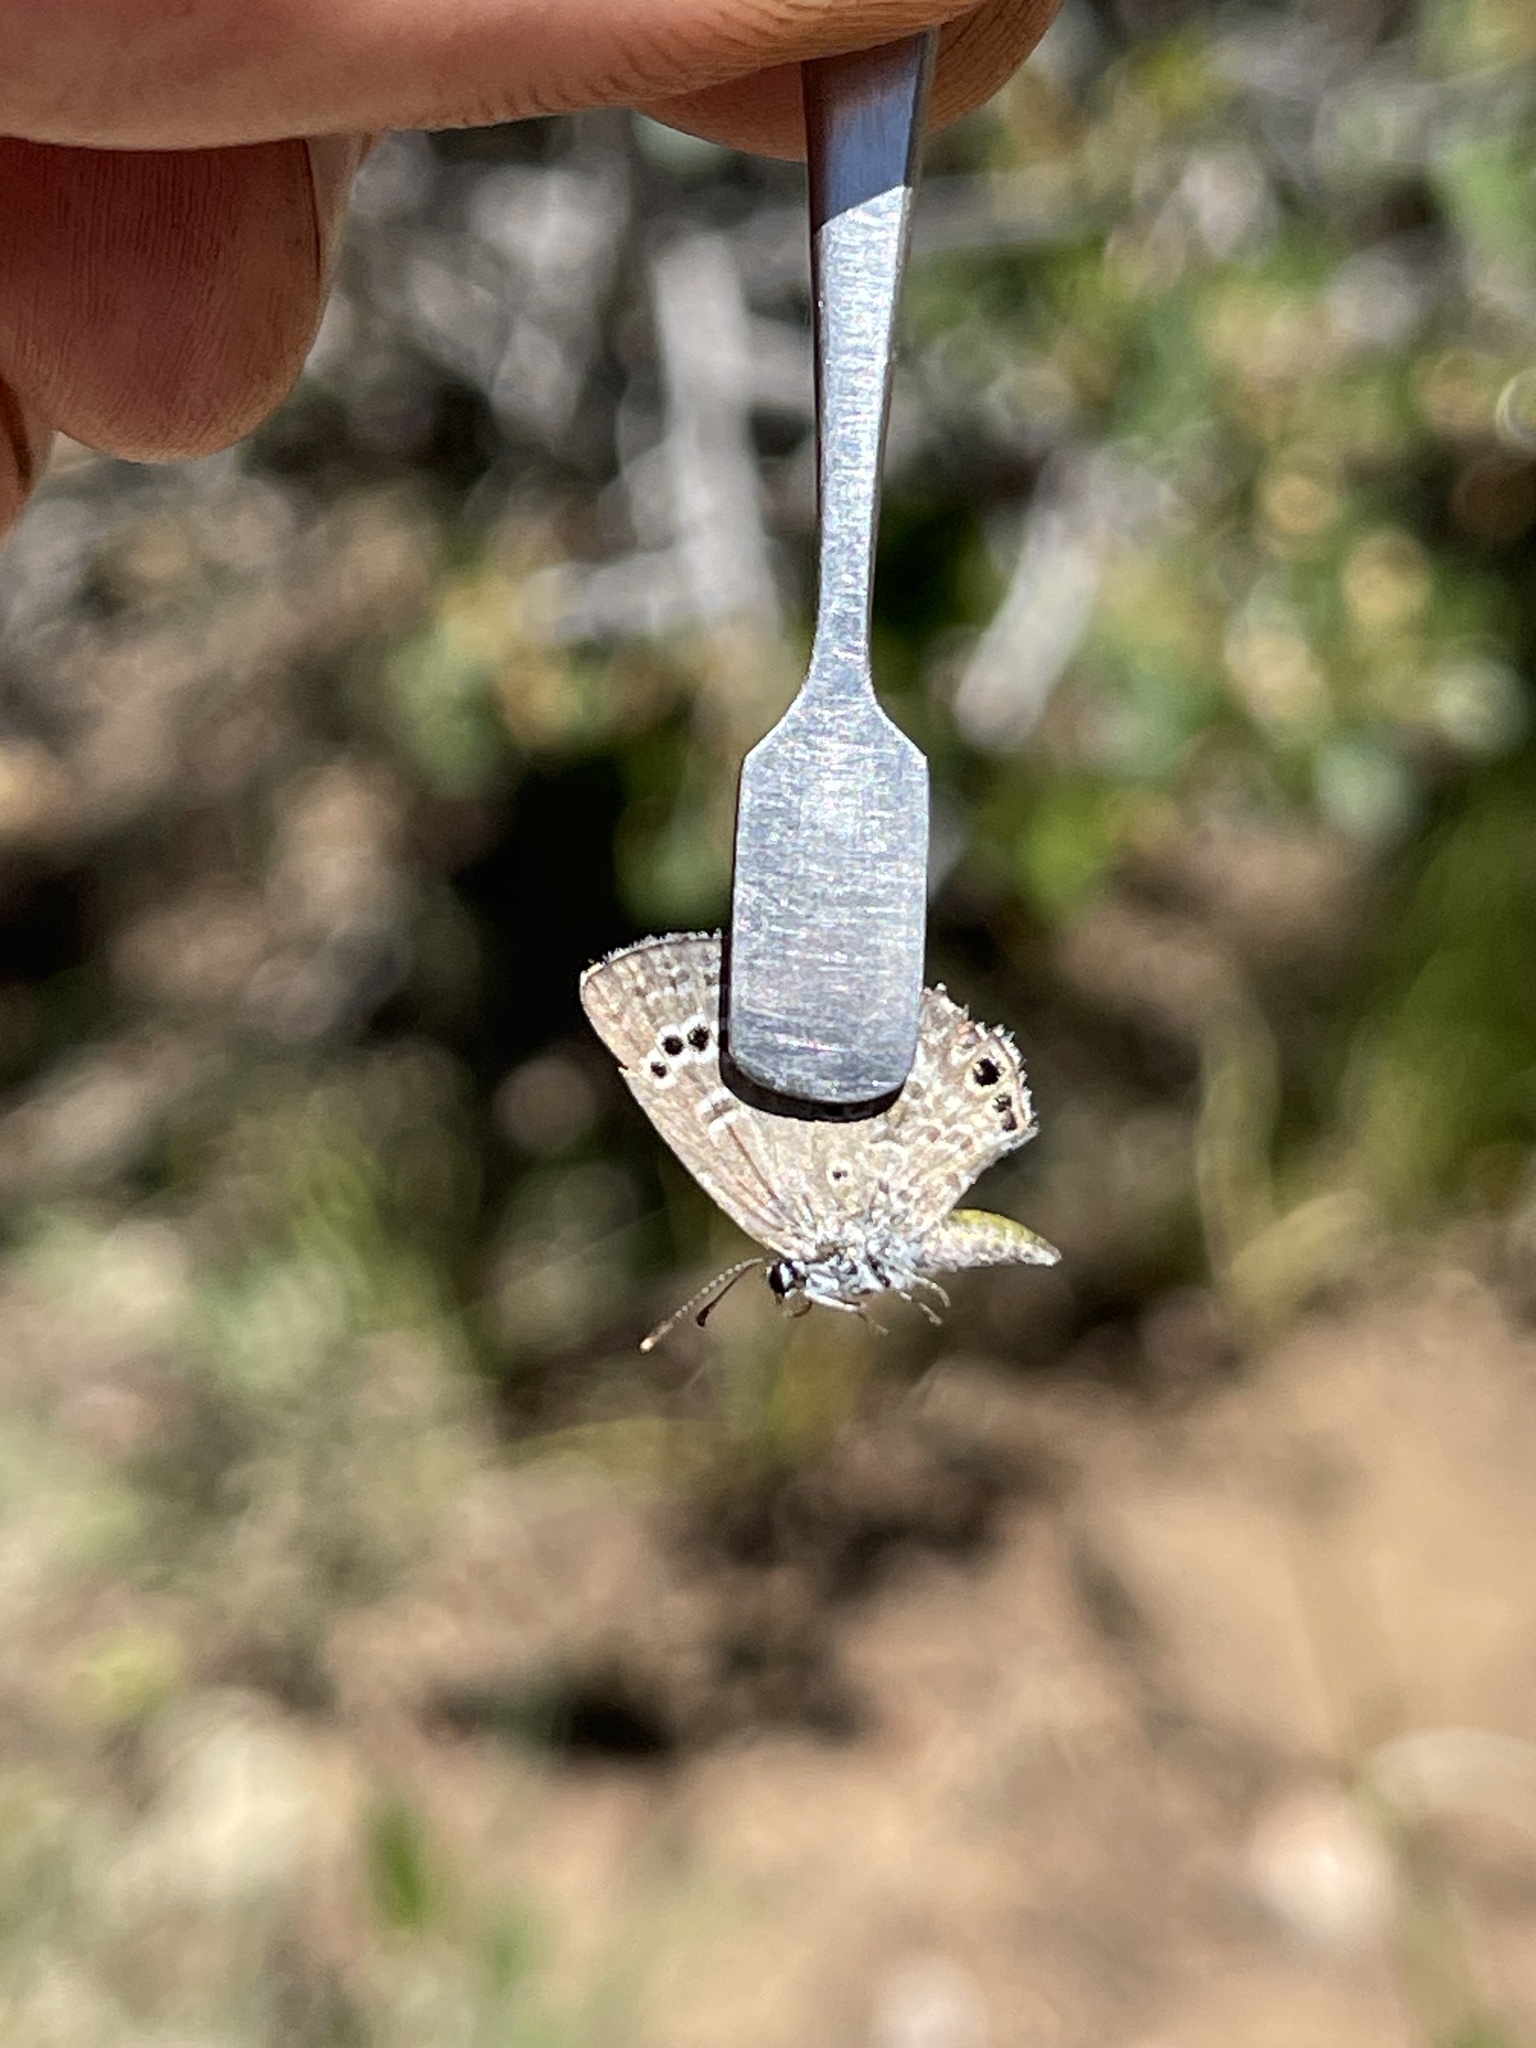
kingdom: Animalia
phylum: Arthropoda
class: Insecta
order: Lepidoptera
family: Lycaenidae
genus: Echinargus
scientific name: Echinargus isola
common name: Reakirt's blue
